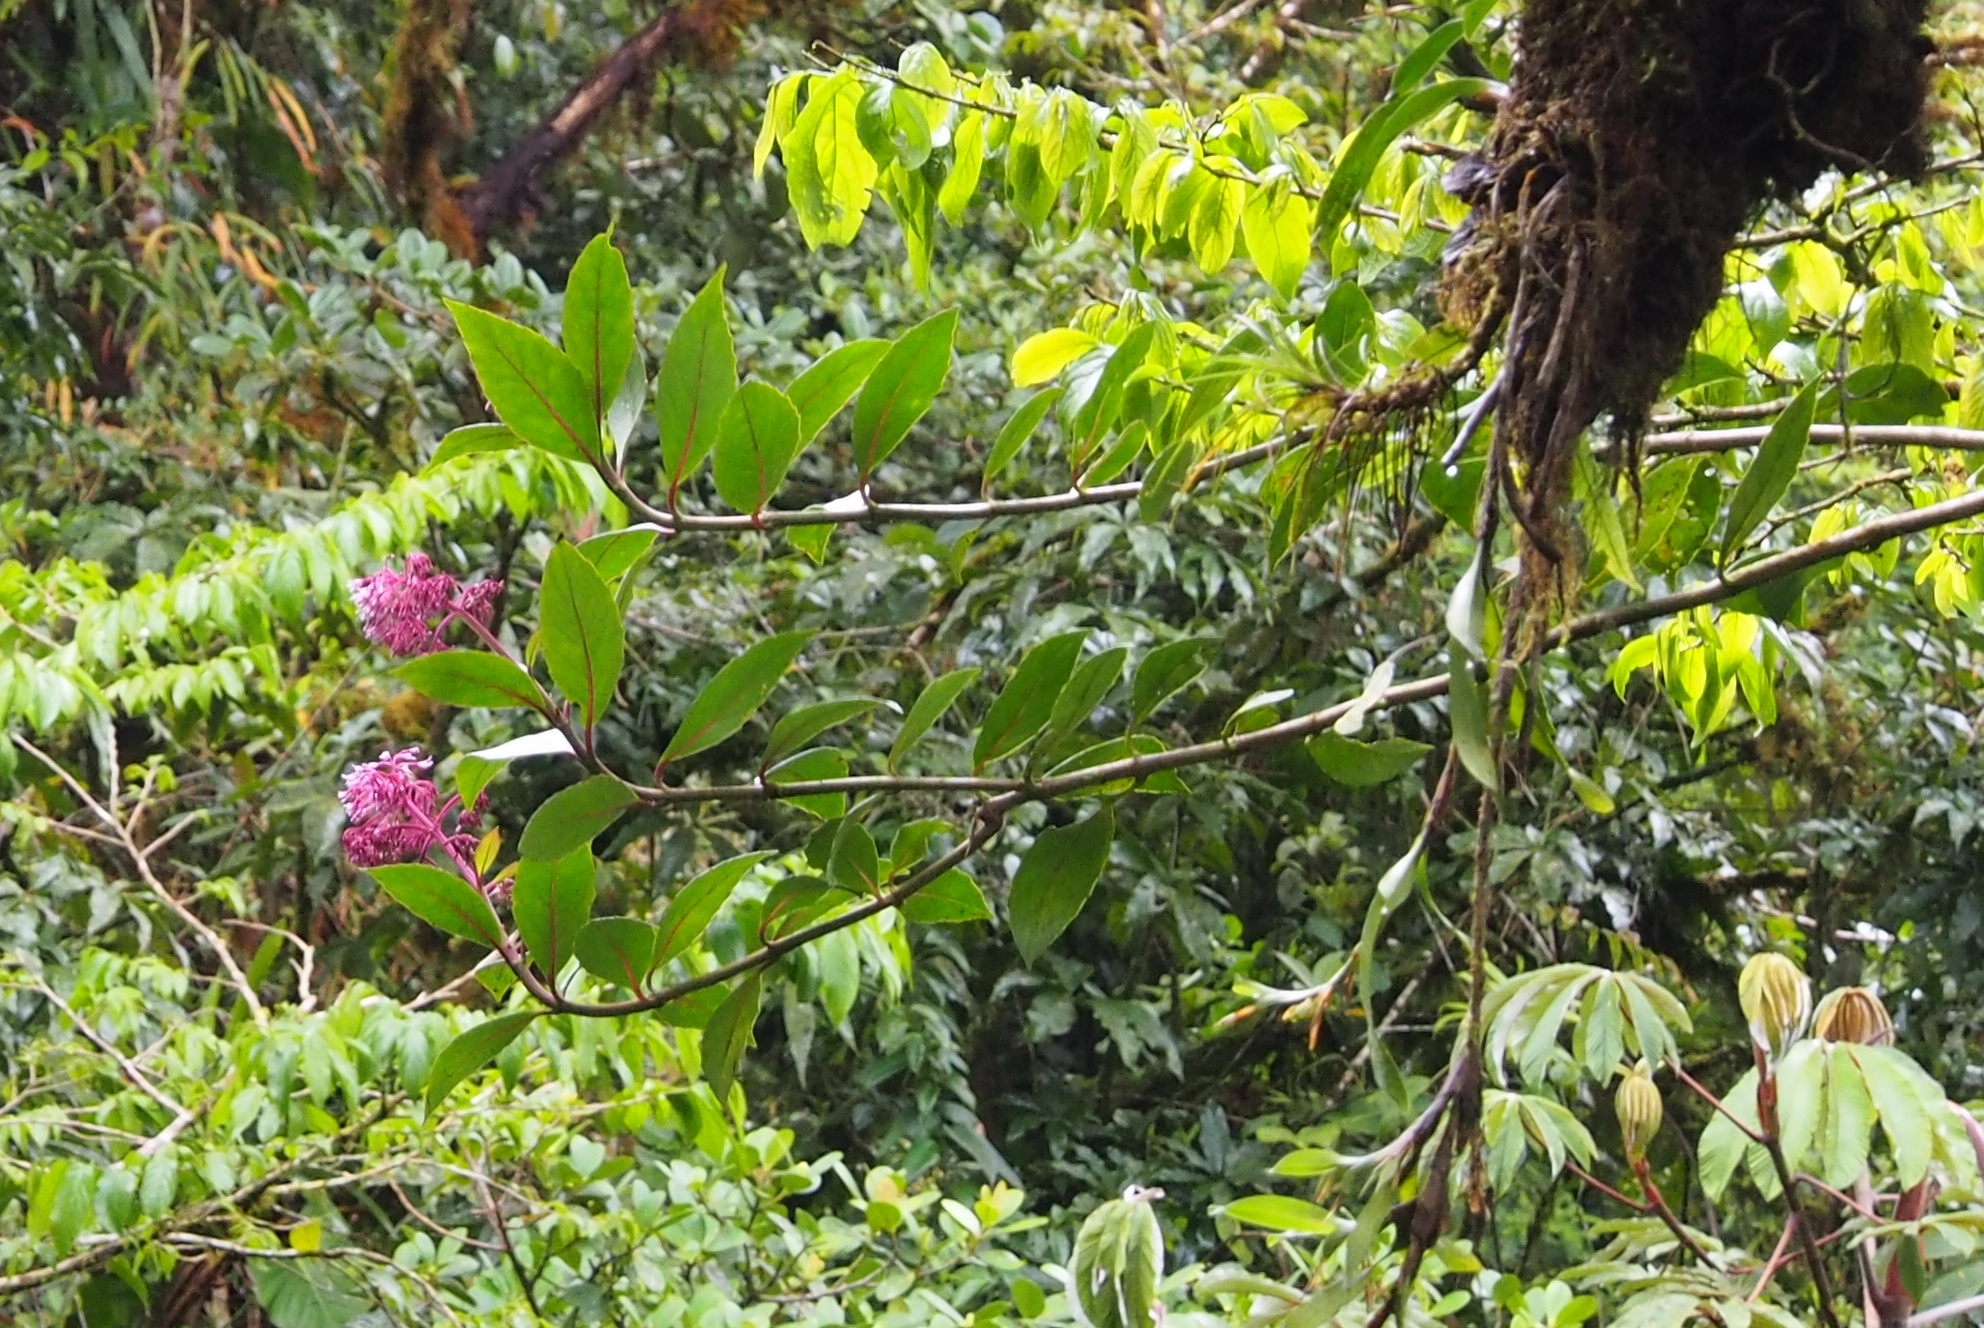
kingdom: Plantae
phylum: Tracheophyta
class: Magnoliopsida
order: Asterales
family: Asteraceae
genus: Neomirandea
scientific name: Neomirandea parasitica
